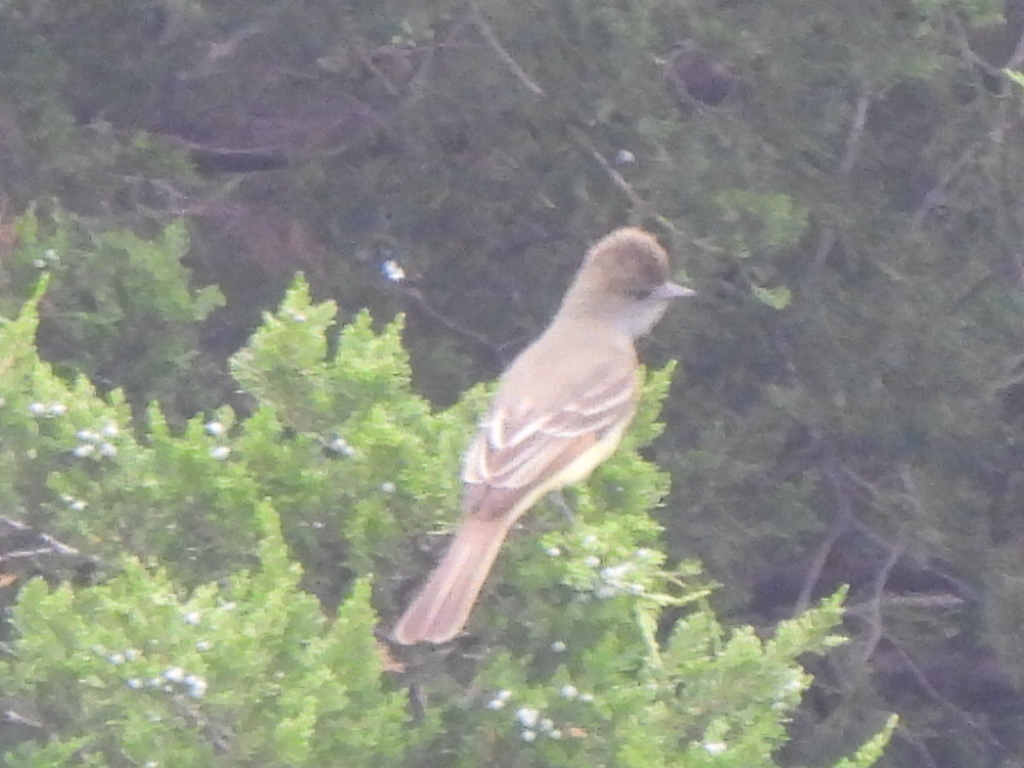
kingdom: Animalia
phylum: Chordata
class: Aves
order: Passeriformes
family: Tyrannidae
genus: Myiarchus
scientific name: Myiarchus crinitus
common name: Great crested flycatcher
